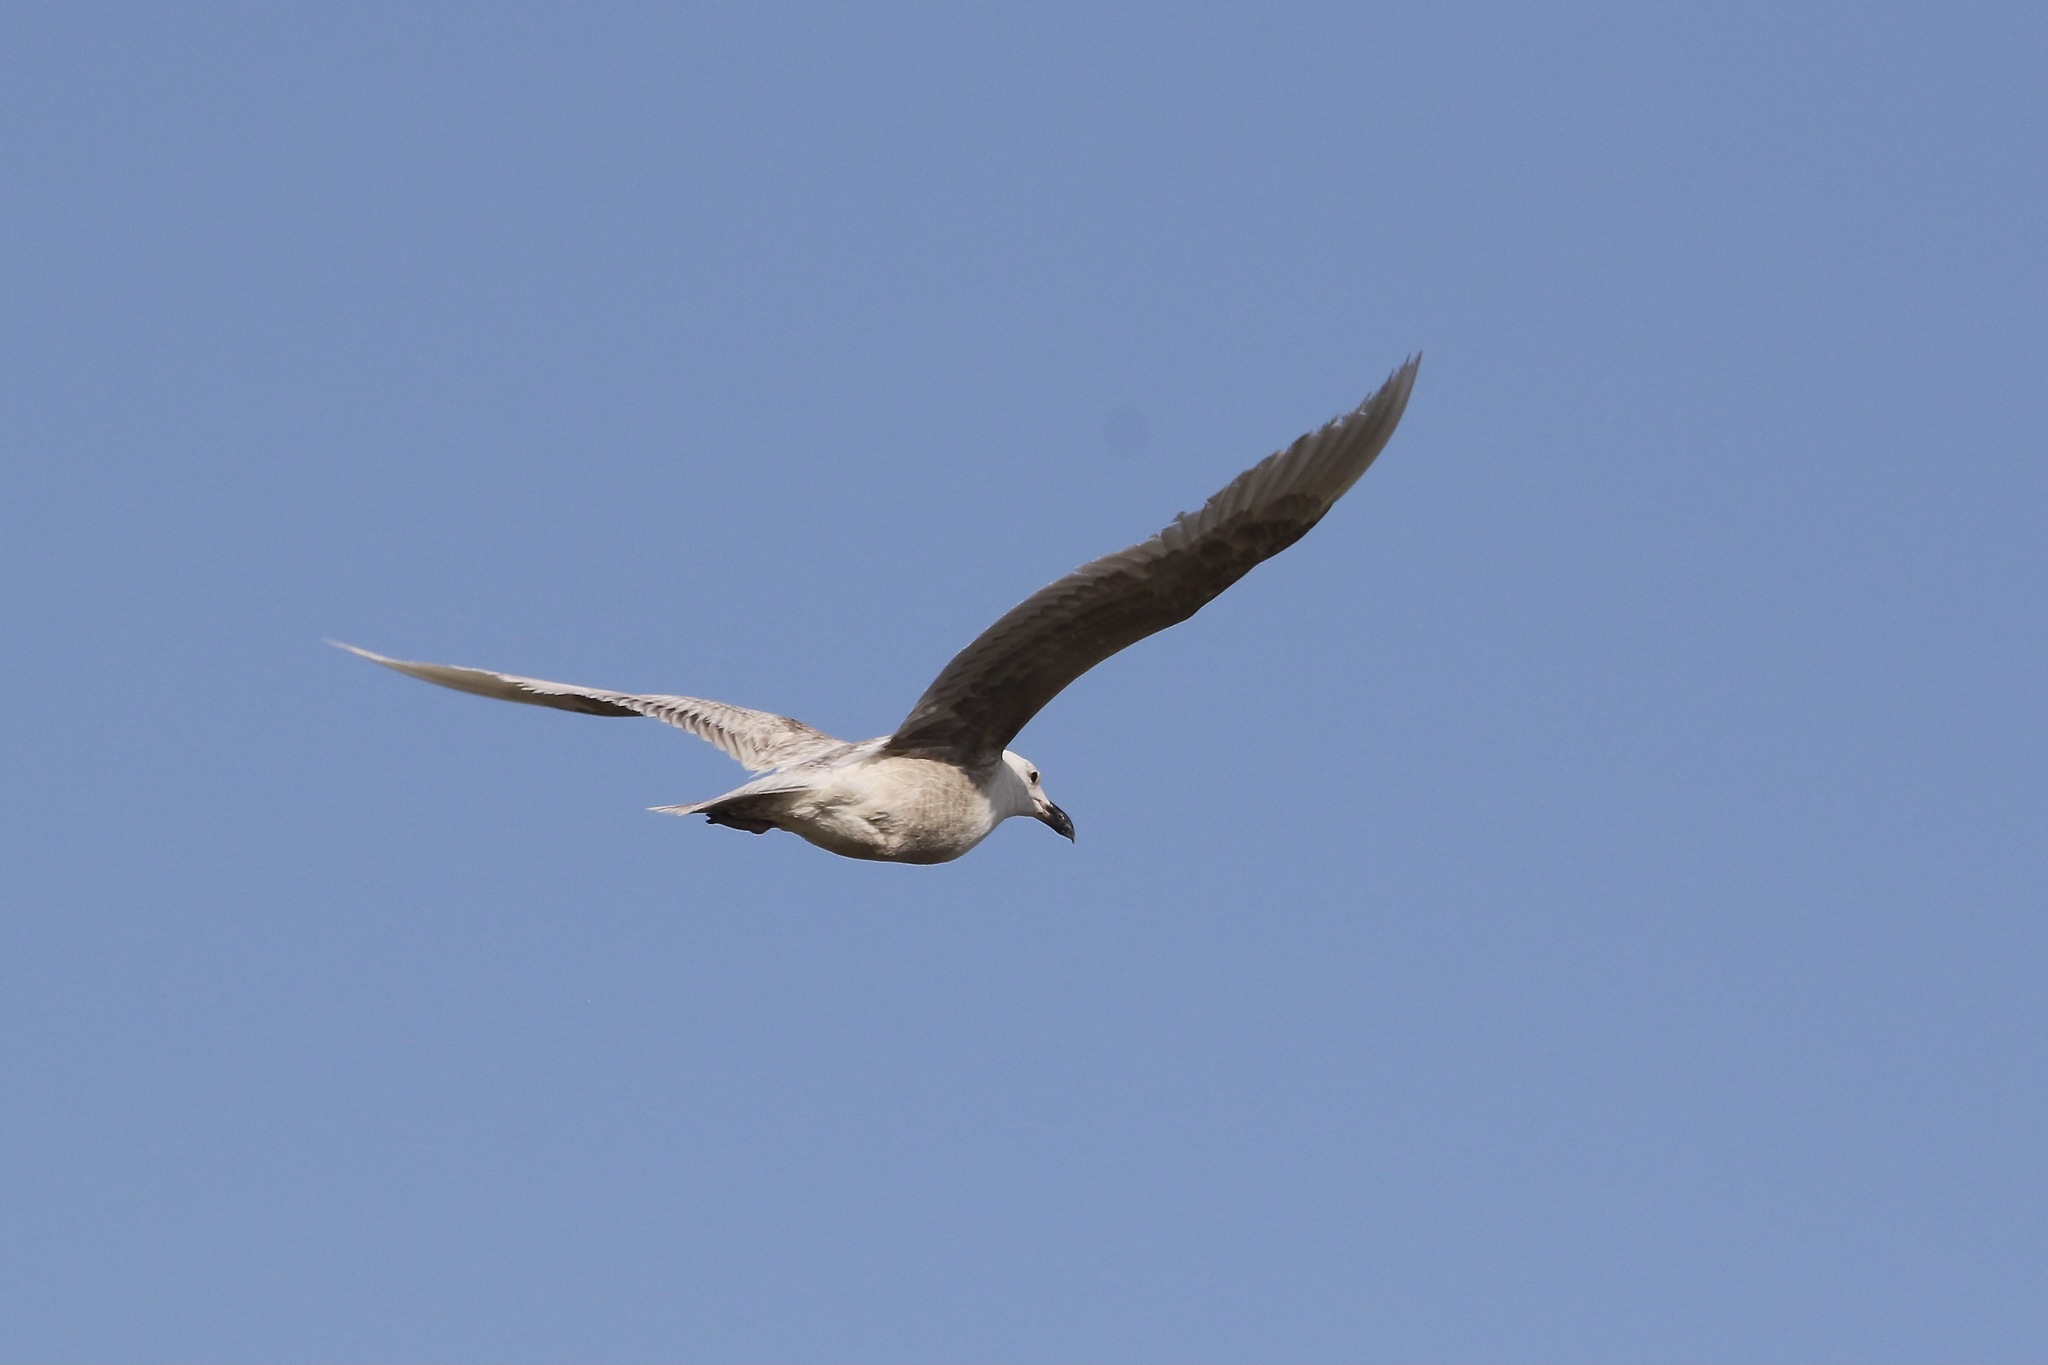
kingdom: Animalia
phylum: Chordata
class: Aves
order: Charadriiformes
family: Laridae
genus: Larus
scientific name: Larus glaucescens
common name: Glaucous-winged gull
